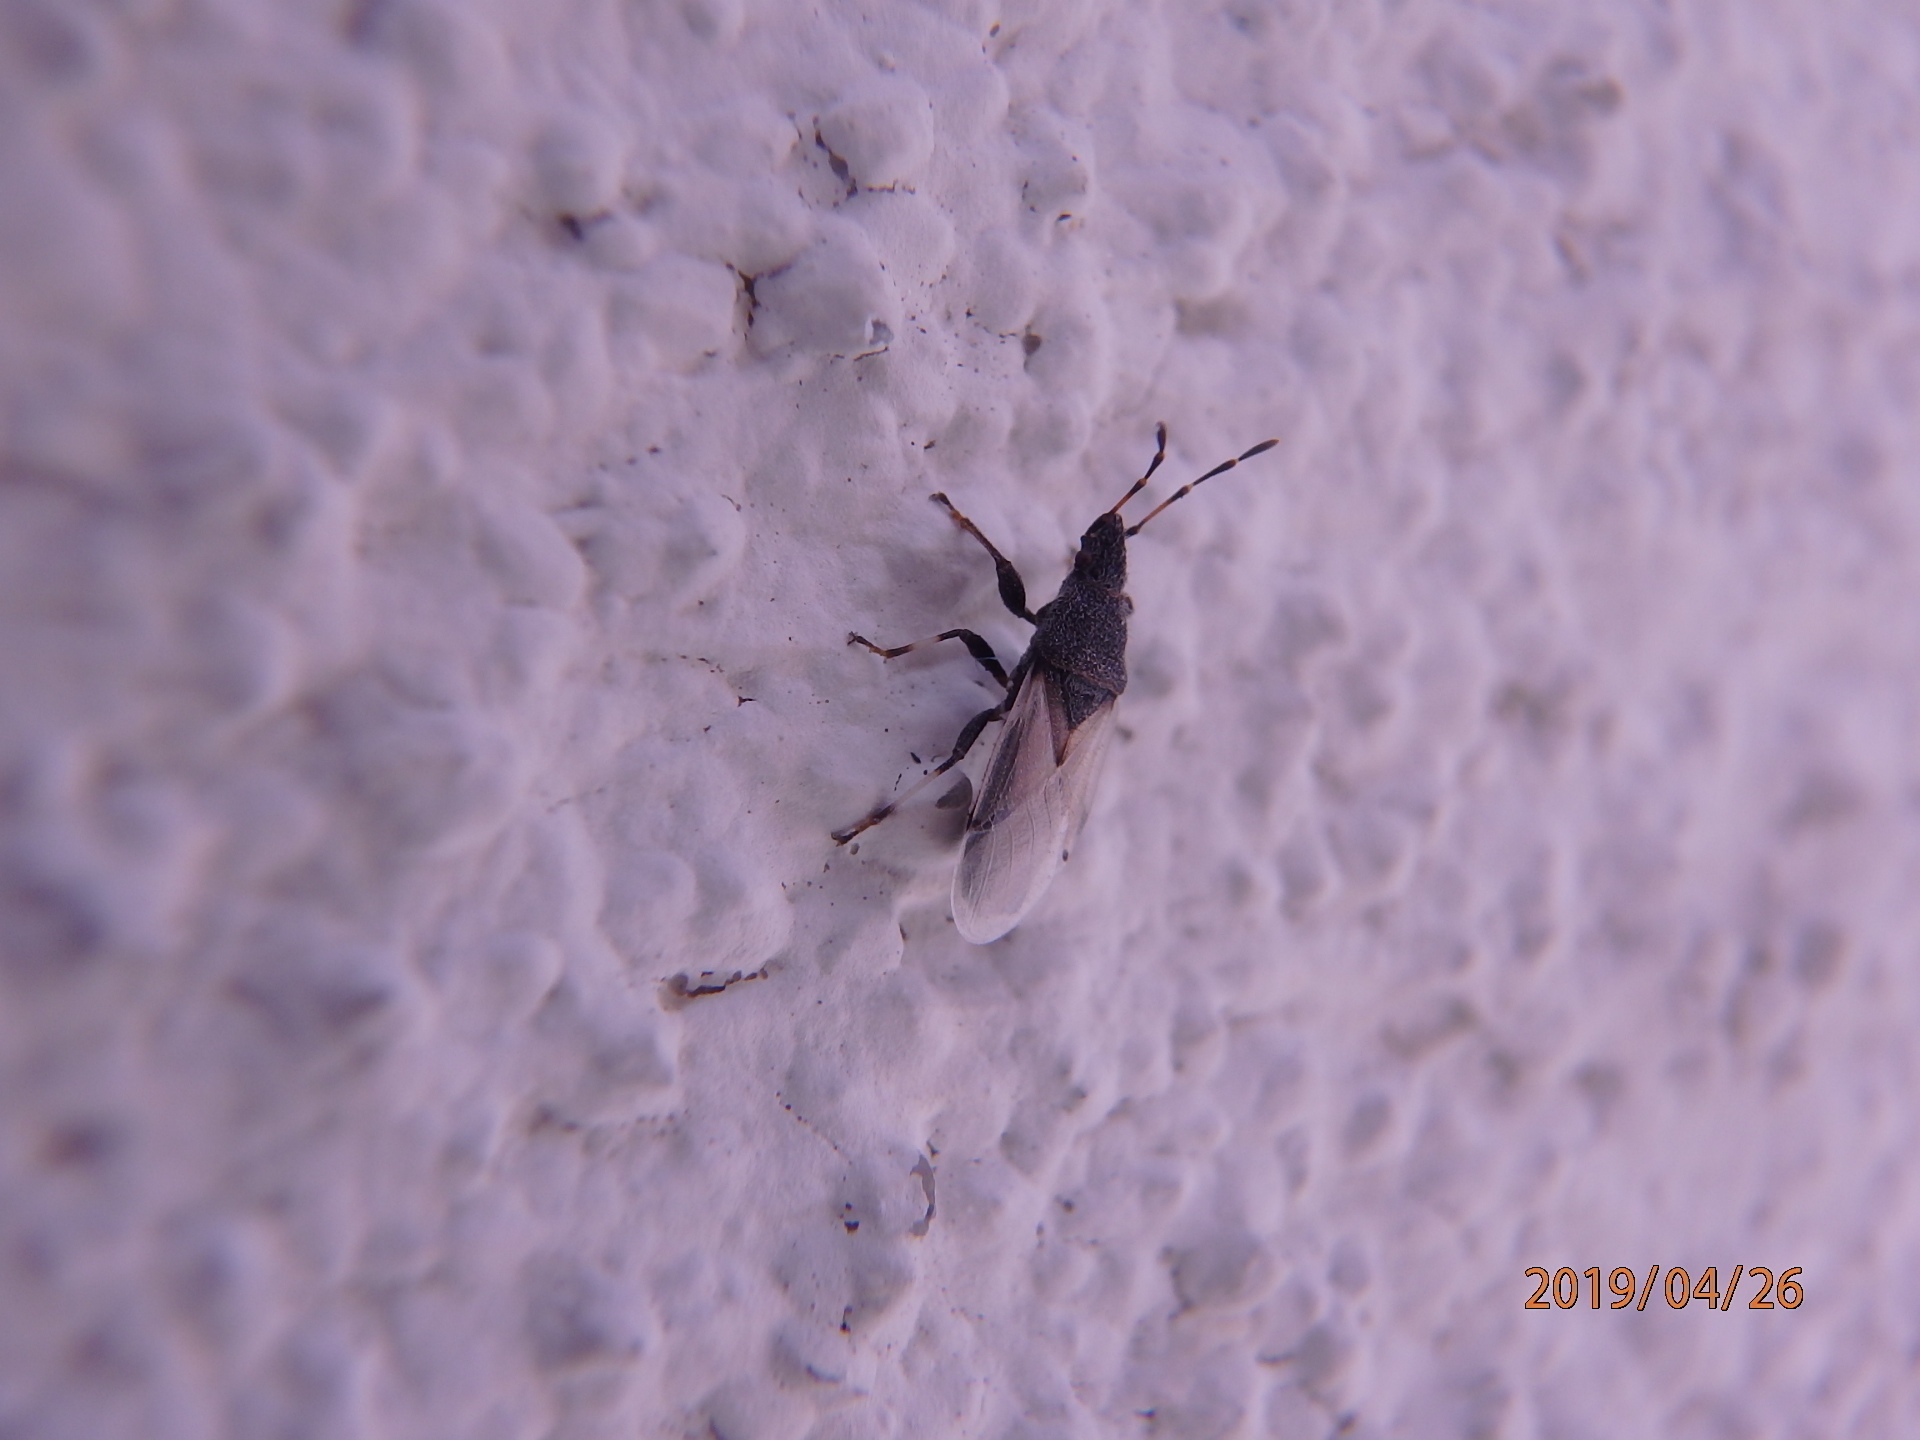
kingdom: Animalia
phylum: Arthropoda
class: Insecta
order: Hemiptera
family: Oxycarenidae
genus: Oxycarenus
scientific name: Oxycarenus hyalinipennis
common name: Cotton seed bug
